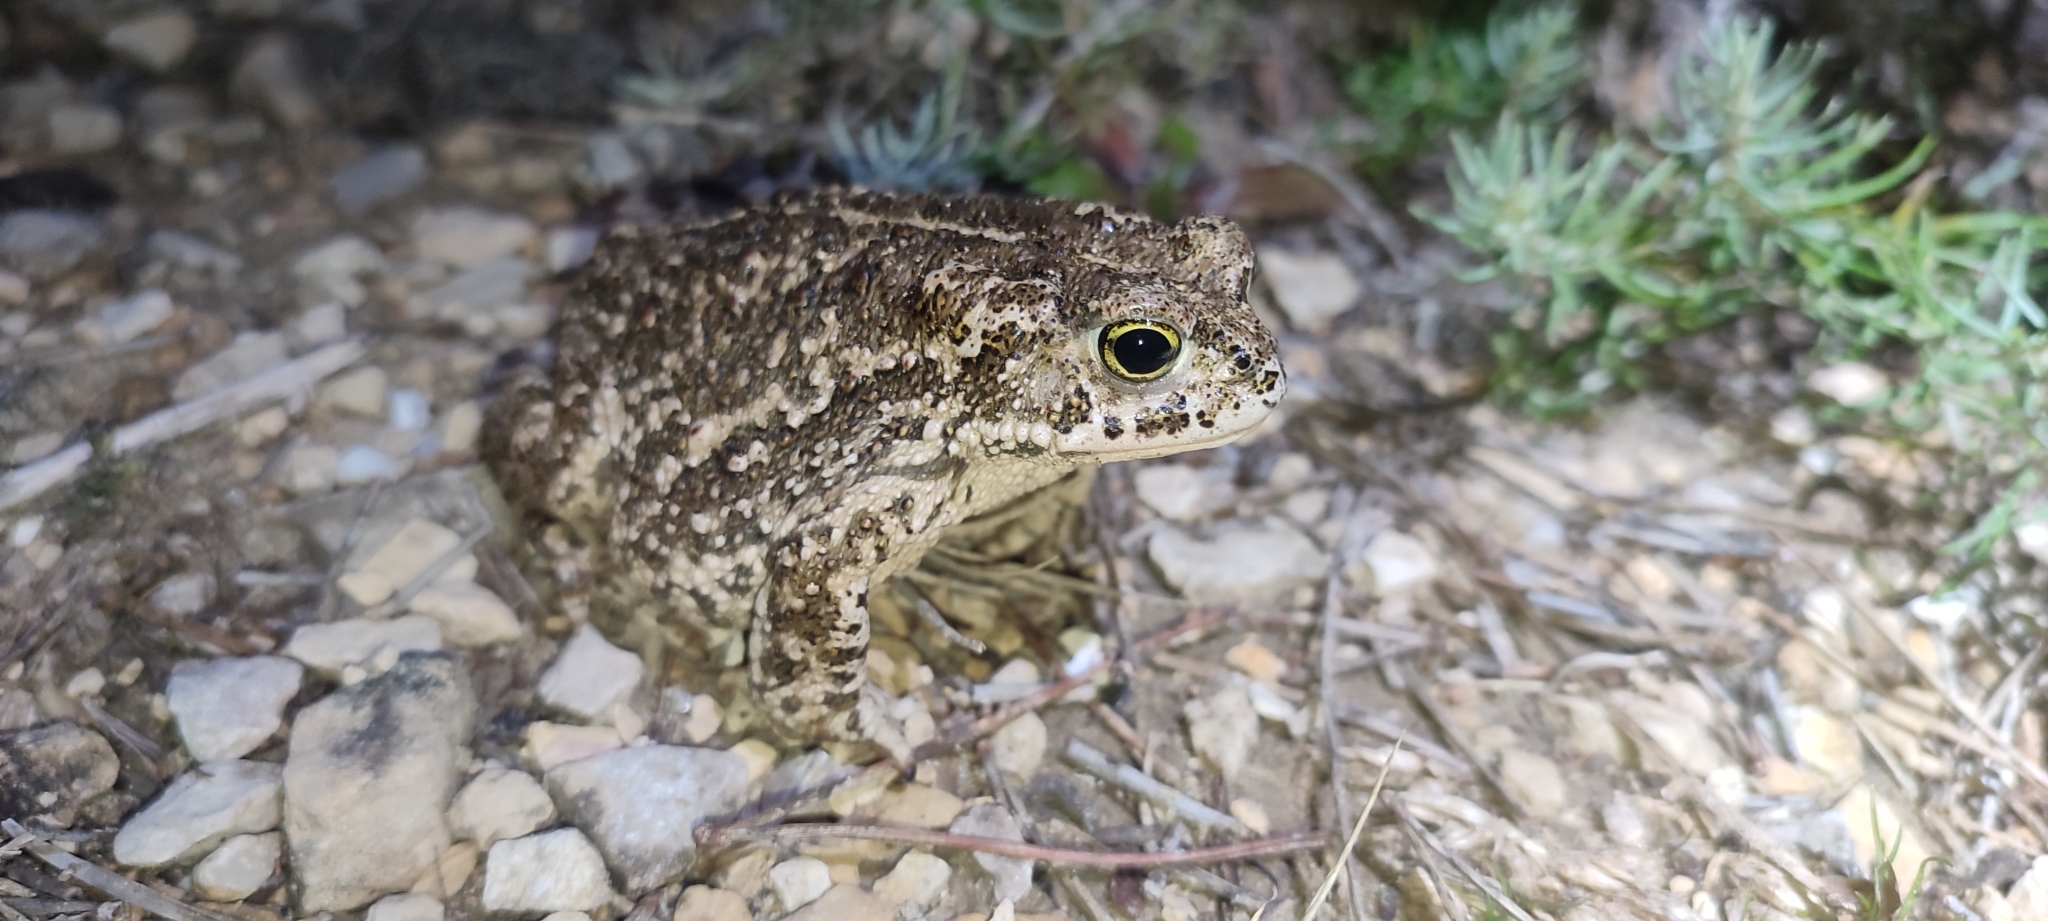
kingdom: Animalia
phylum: Chordata
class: Amphibia
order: Anura
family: Bufonidae
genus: Epidalea
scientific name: Epidalea calamita
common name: Natterjack toad
